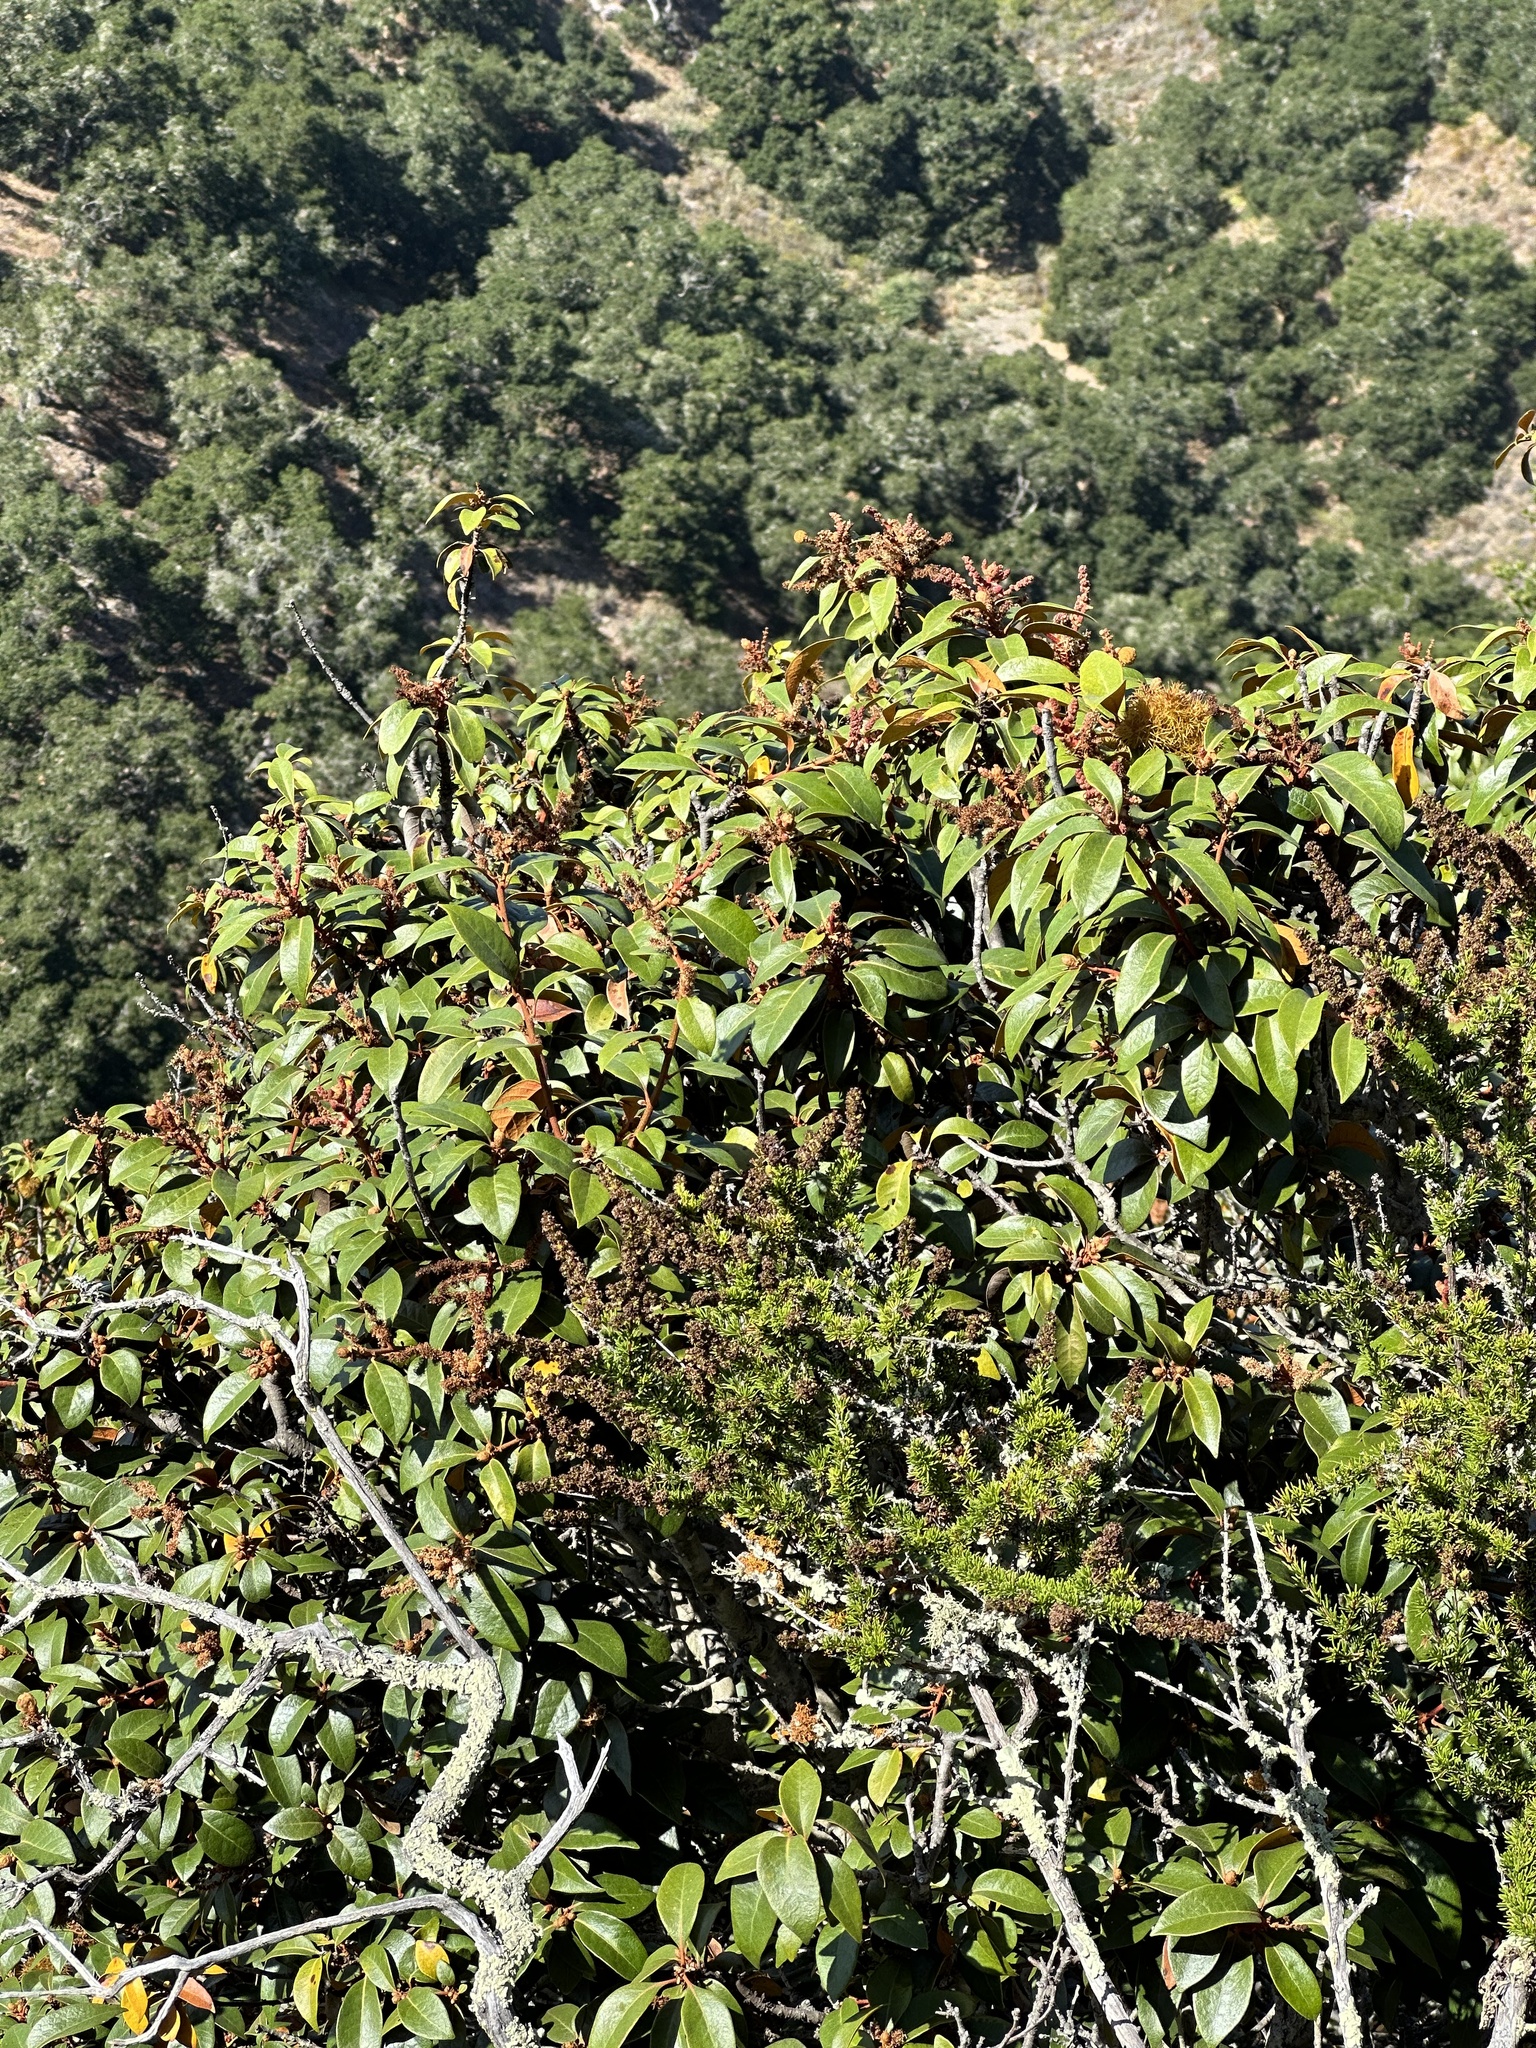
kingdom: Plantae
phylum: Tracheophyta
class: Magnoliopsida
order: Fagales
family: Fagaceae
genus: Chrysolepis
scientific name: Chrysolepis chrysophylla
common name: Giant chinquapin
